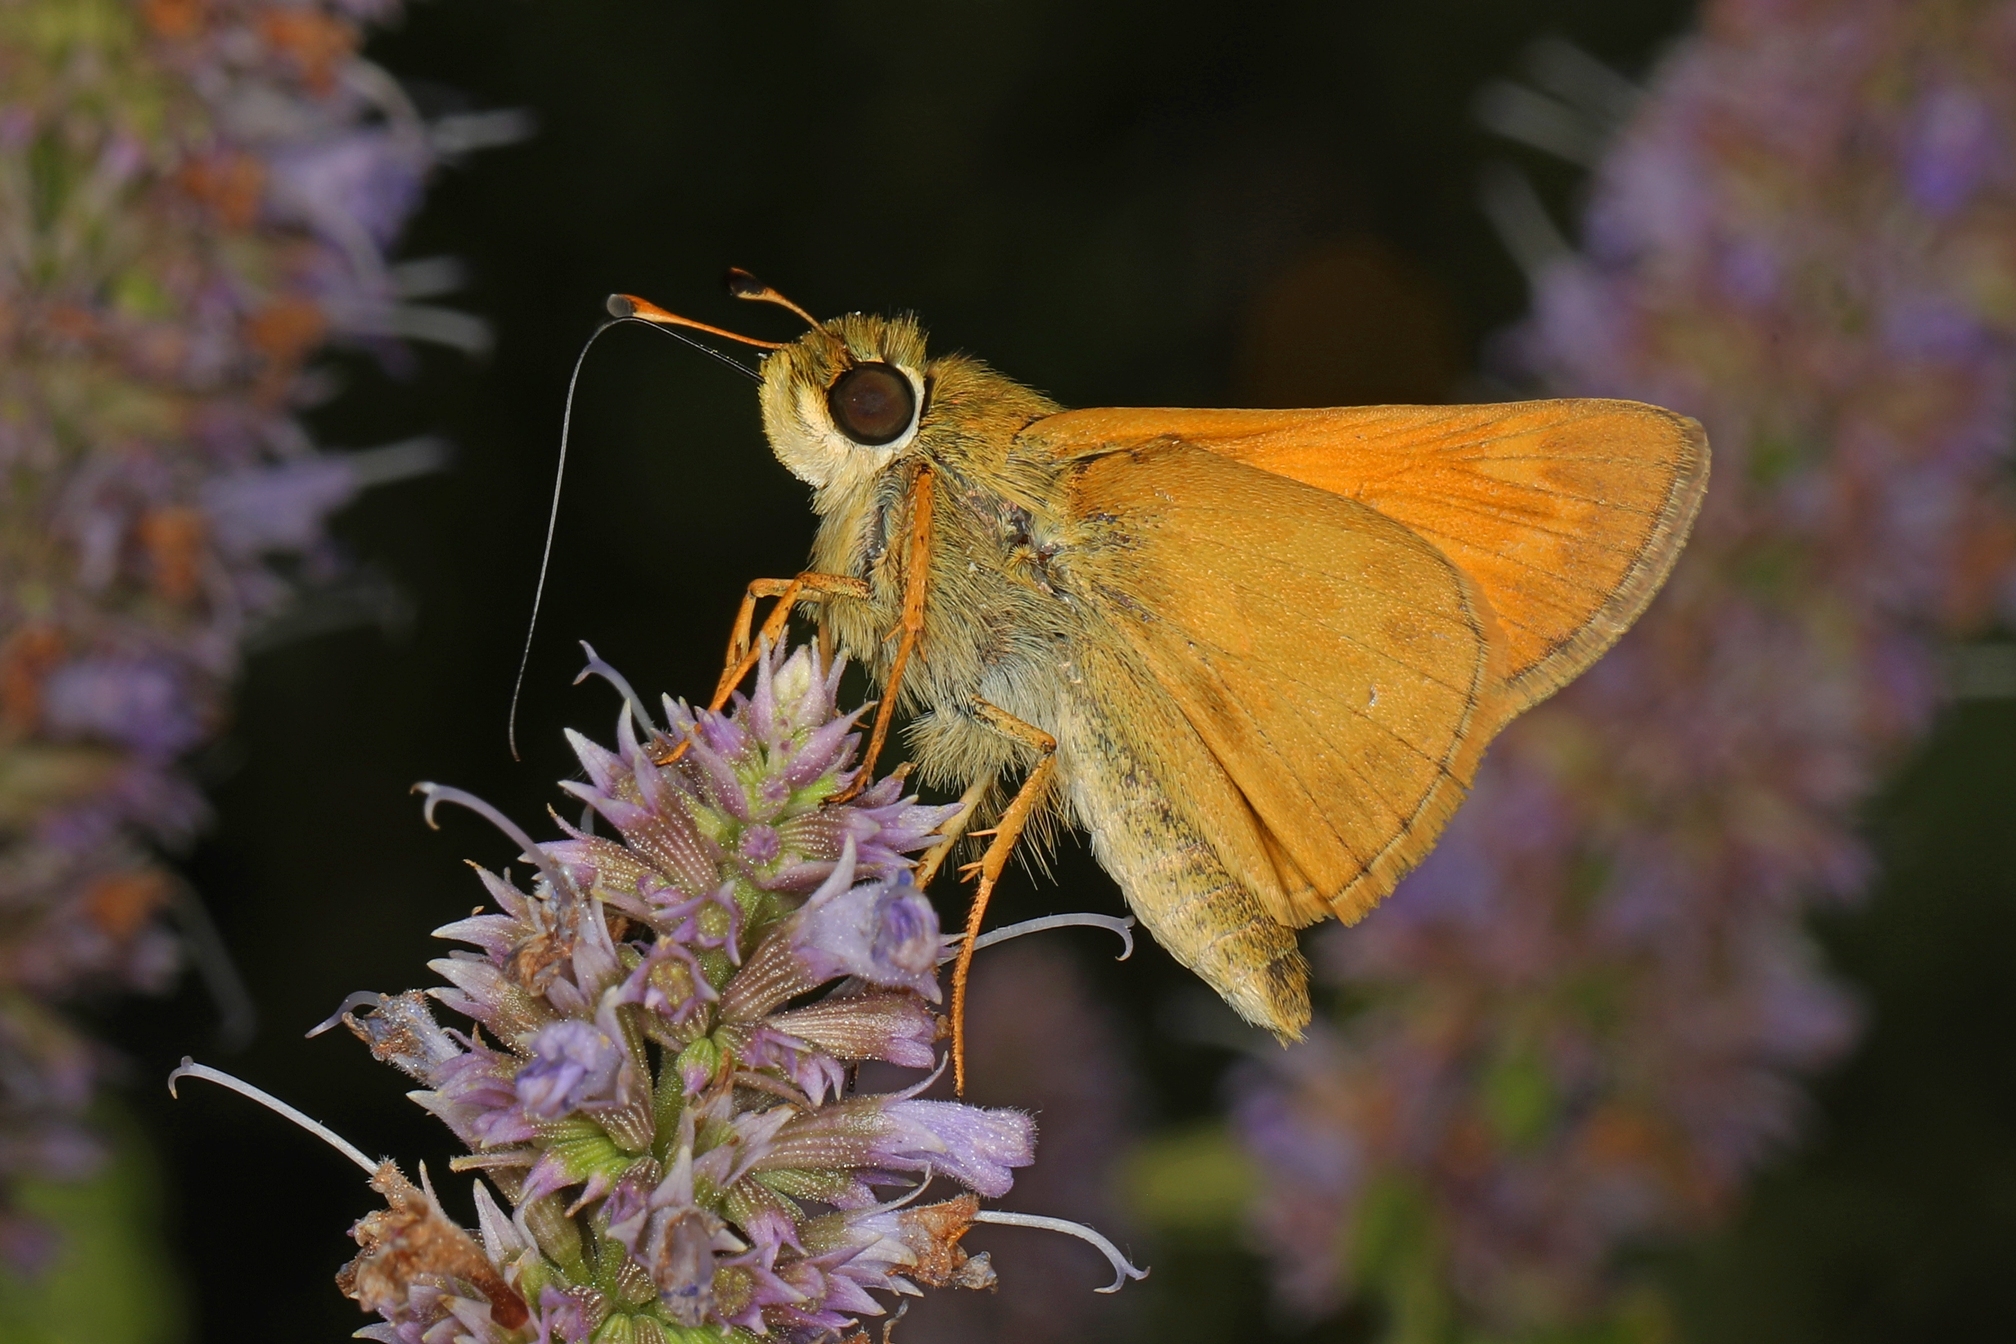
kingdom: Animalia
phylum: Arthropoda
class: Insecta
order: Lepidoptera
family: Hesperiidae
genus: Atalopedes
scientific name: Atalopedes
